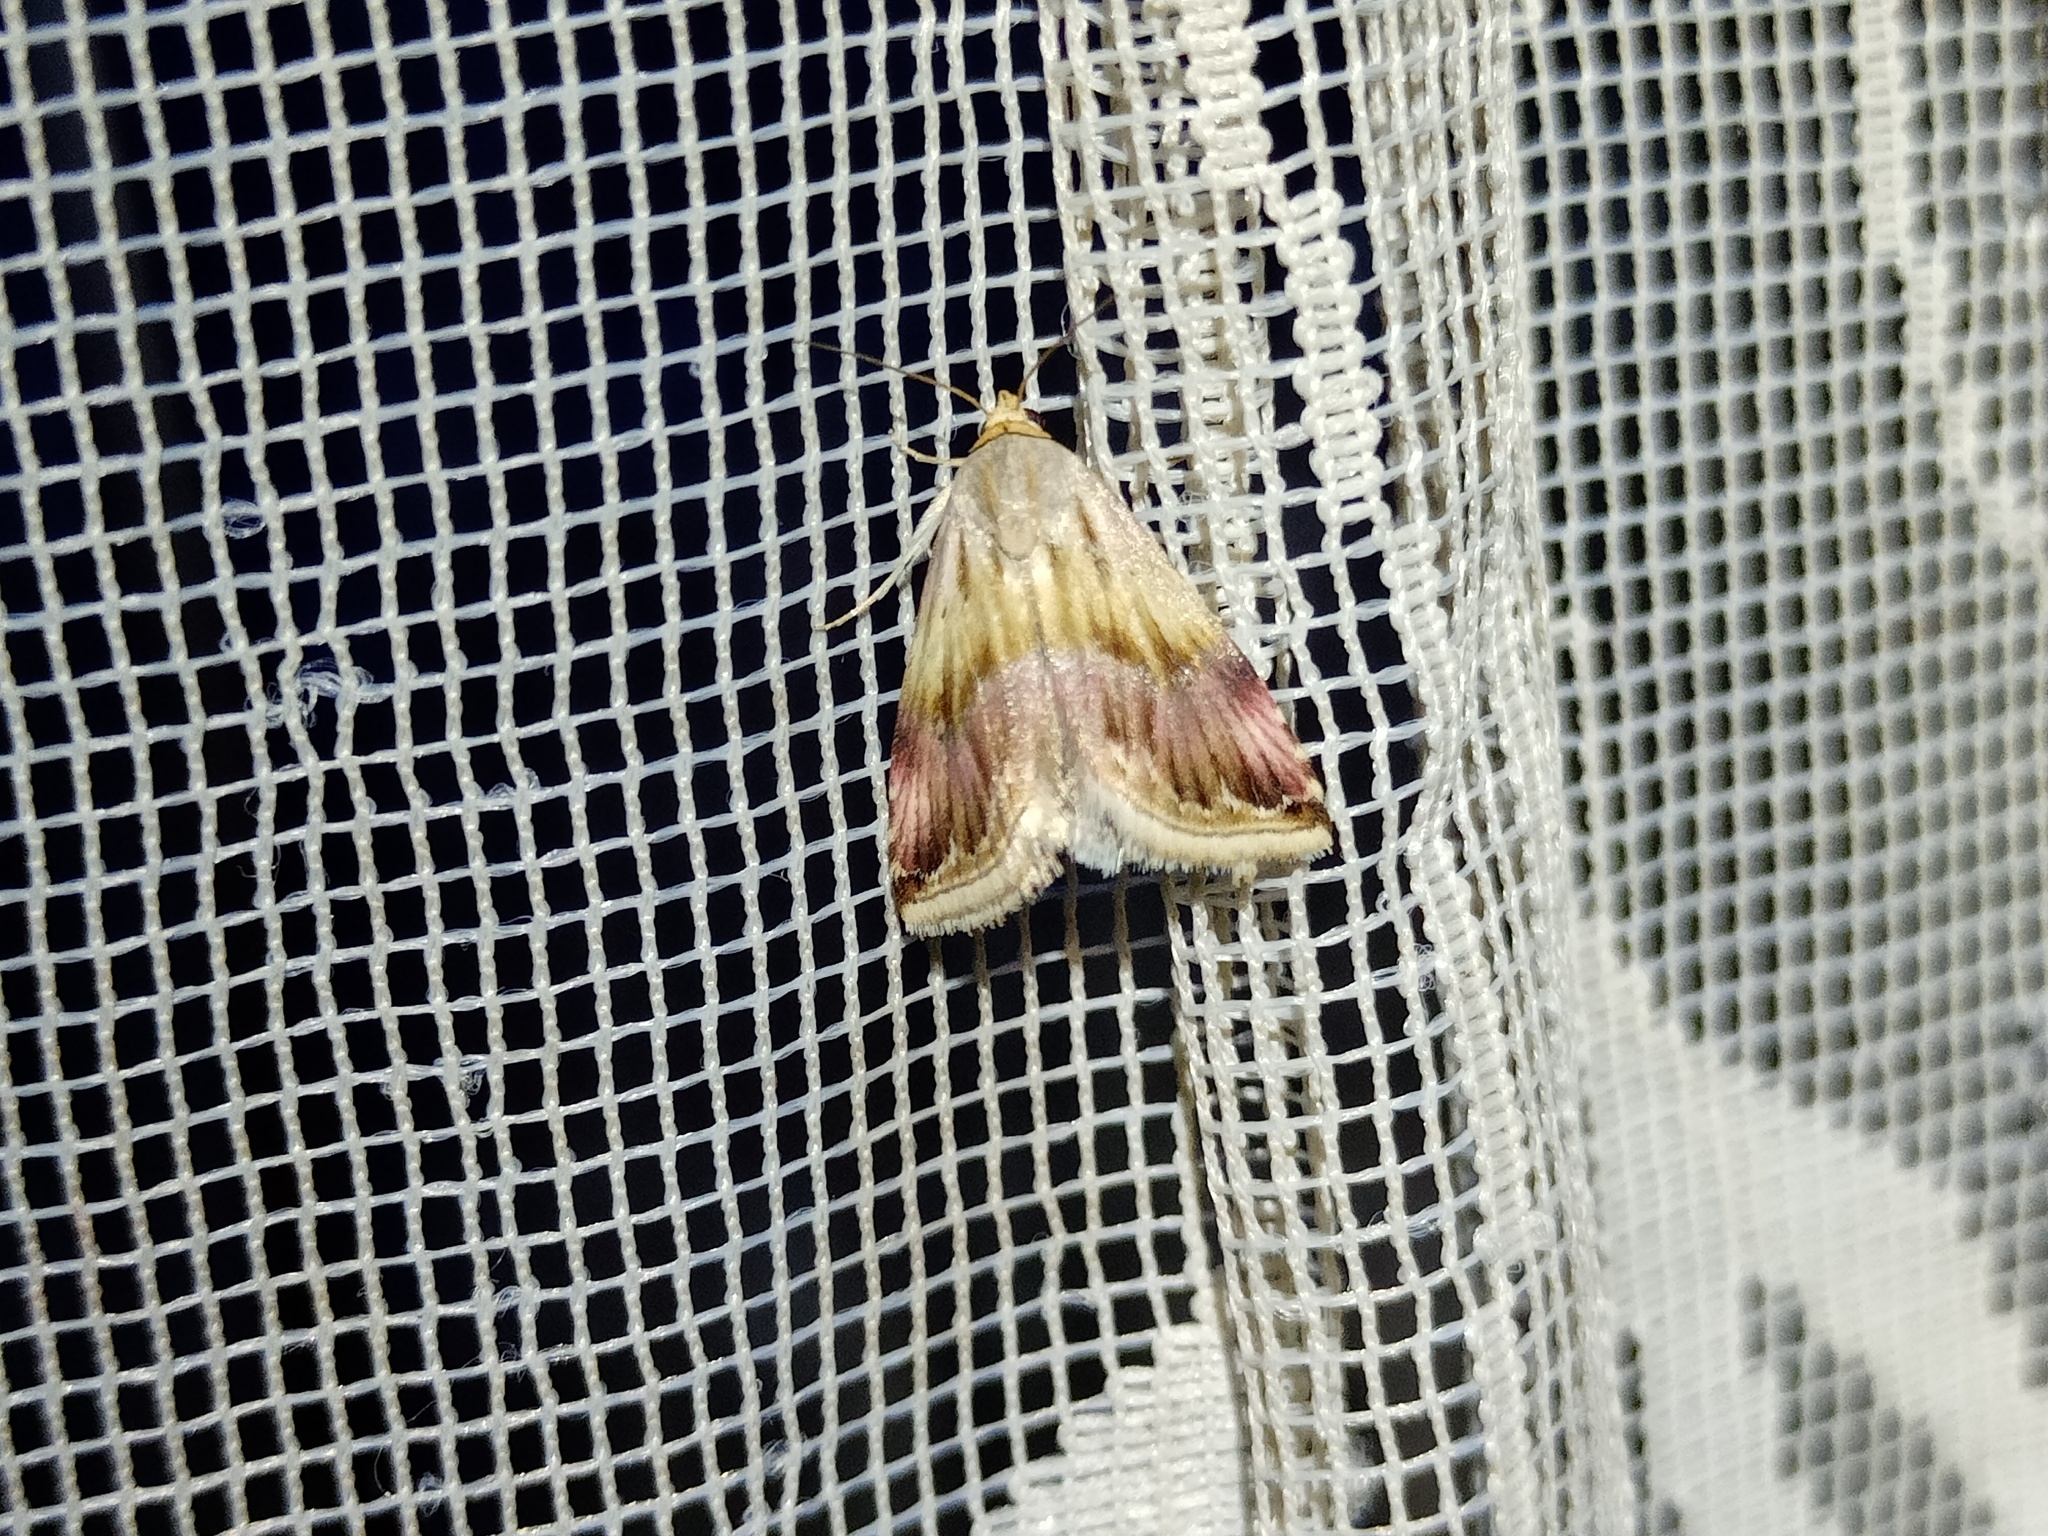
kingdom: Animalia
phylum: Arthropoda
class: Insecta
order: Lepidoptera
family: Noctuidae
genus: Eublemma
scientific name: Eublemma ostrina
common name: Purple marbled
